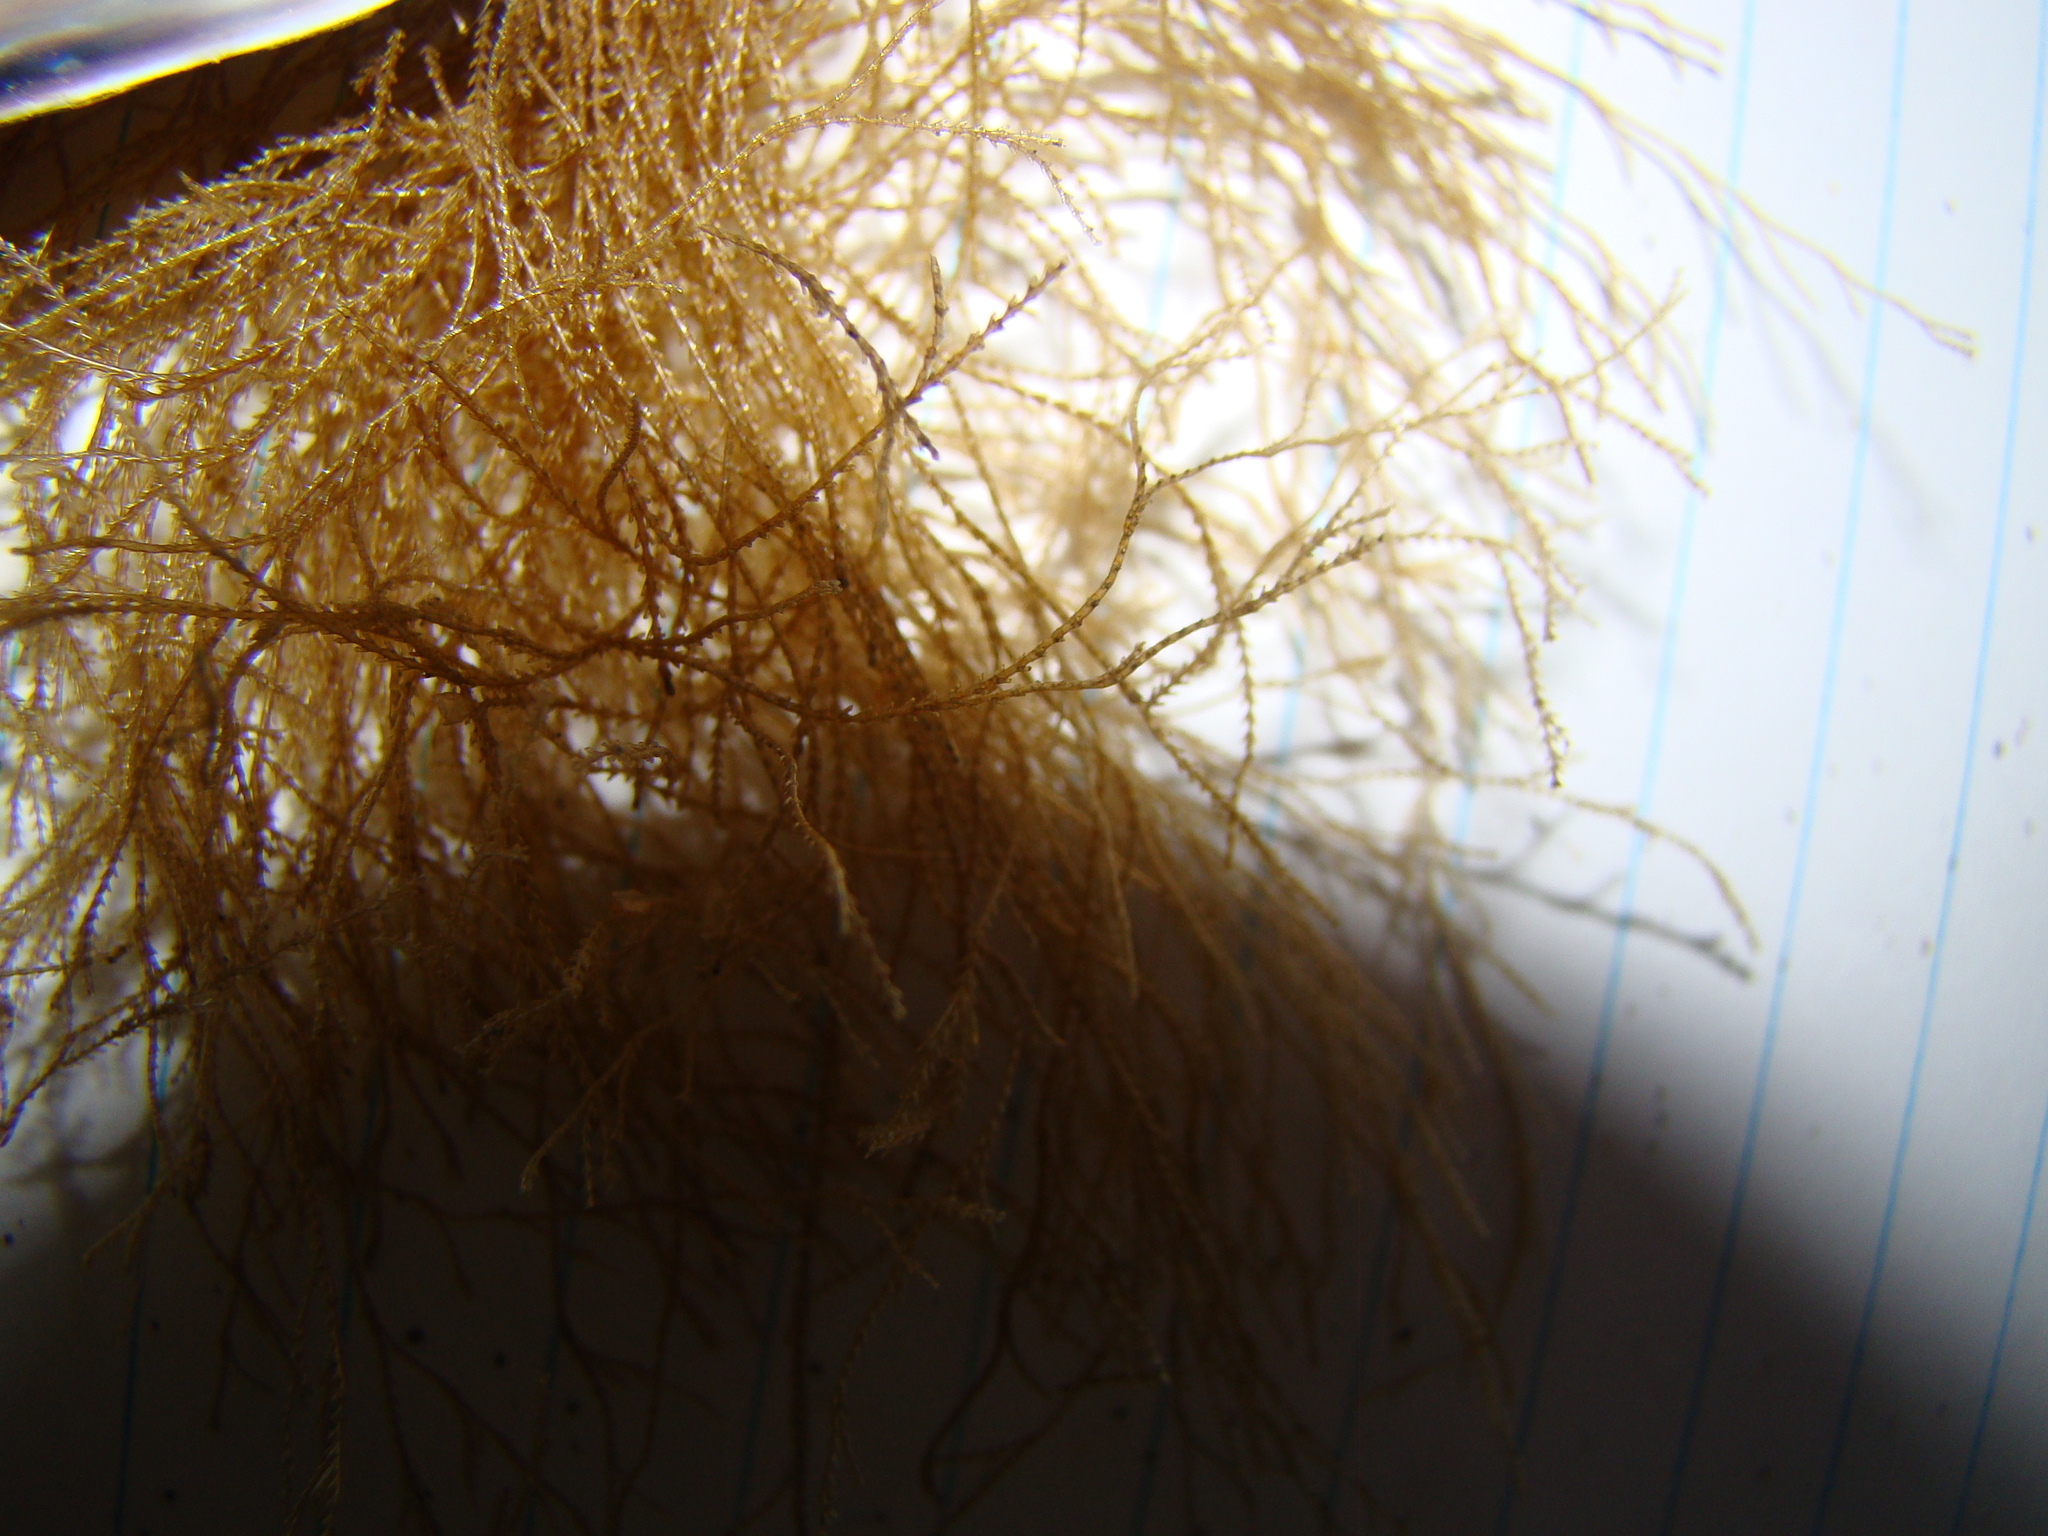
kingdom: Animalia
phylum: Cnidaria
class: Hydrozoa
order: Leptothecata
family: Sertulariidae
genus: Amphisbetia
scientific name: Amphisbetia bispinosa
